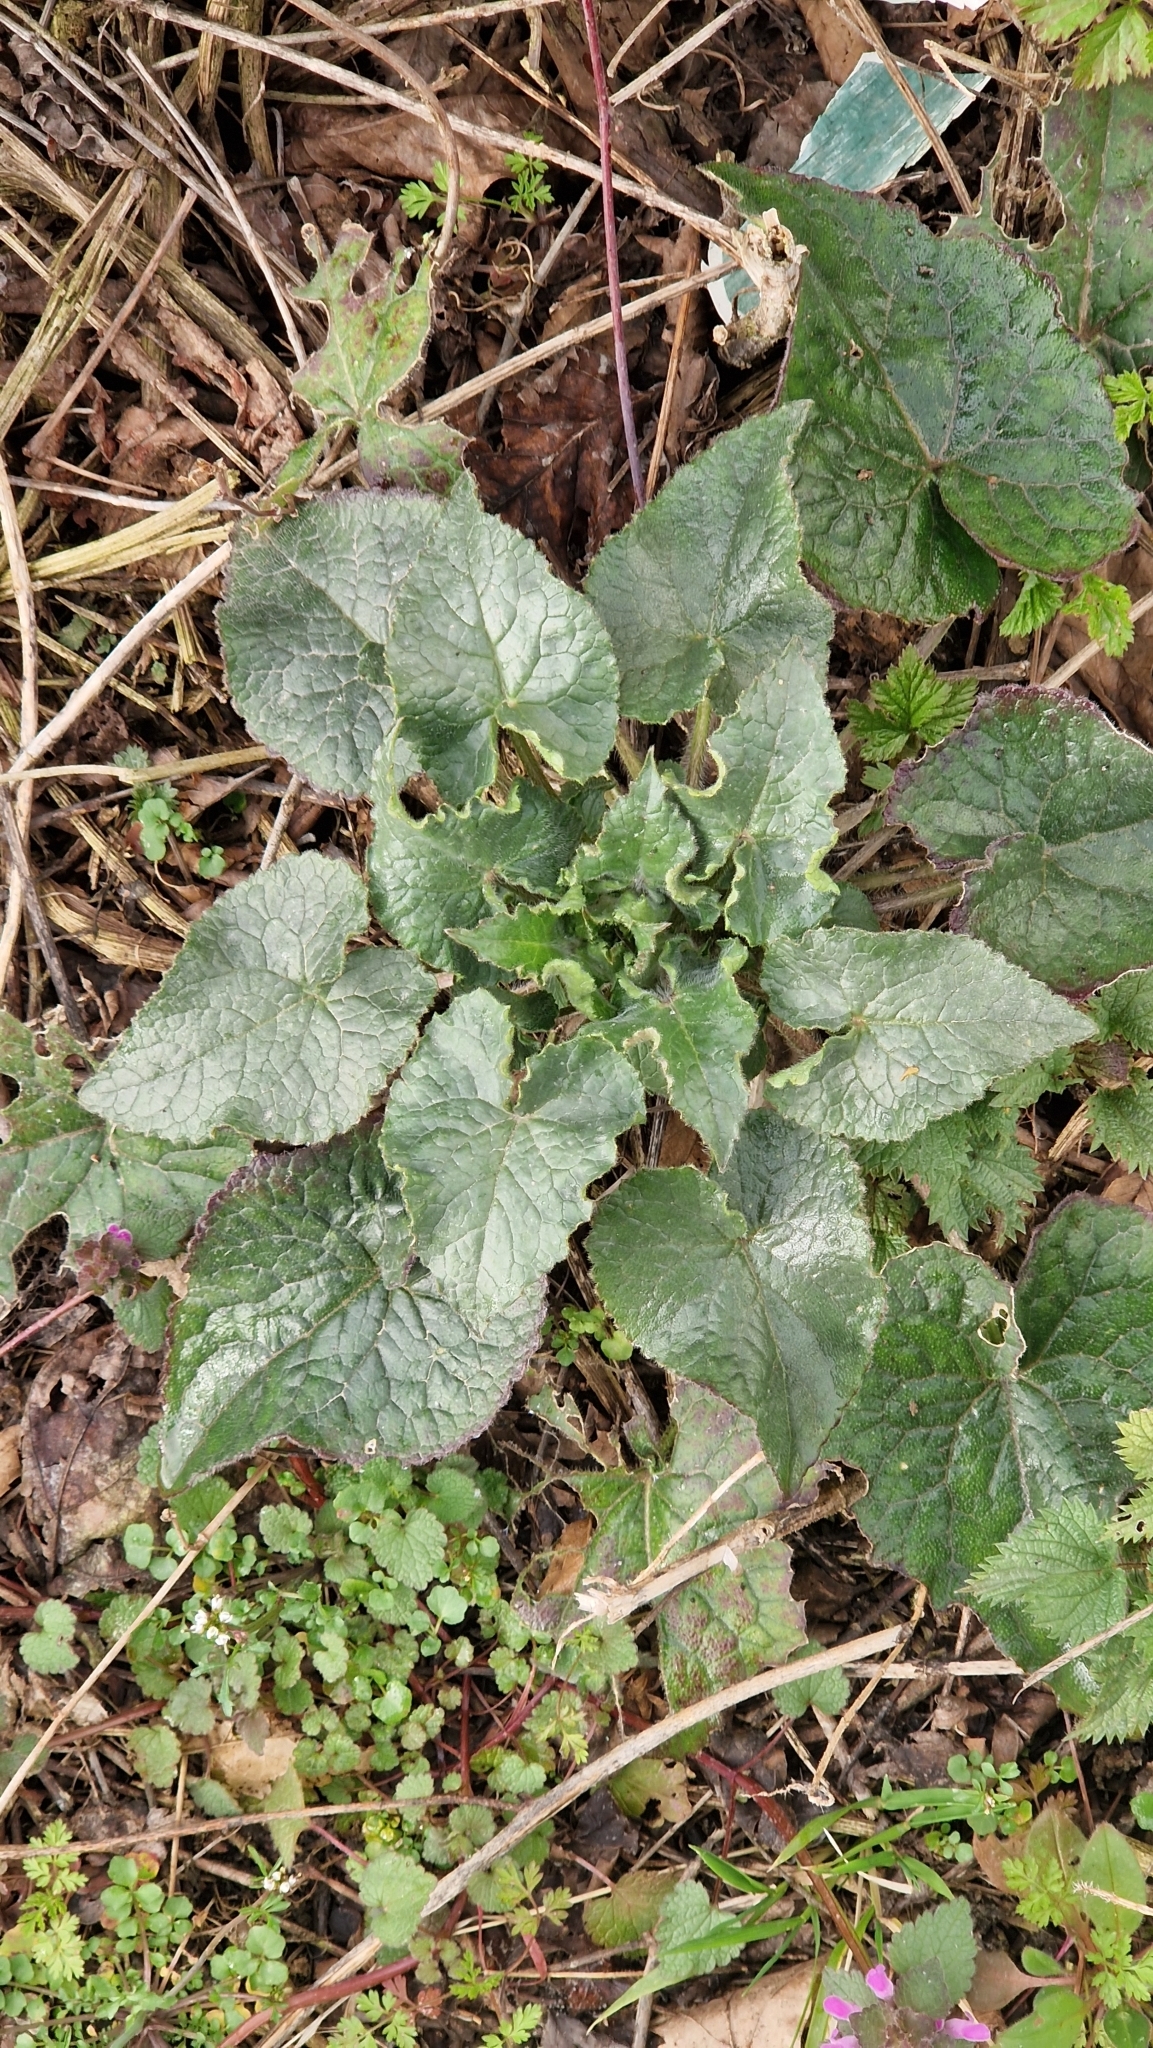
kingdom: Plantae
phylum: Tracheophyta
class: Magnoliopsida
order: Brassicales
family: Brassicaceae
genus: Lunaria
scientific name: Lunaria annua
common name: Honesty
